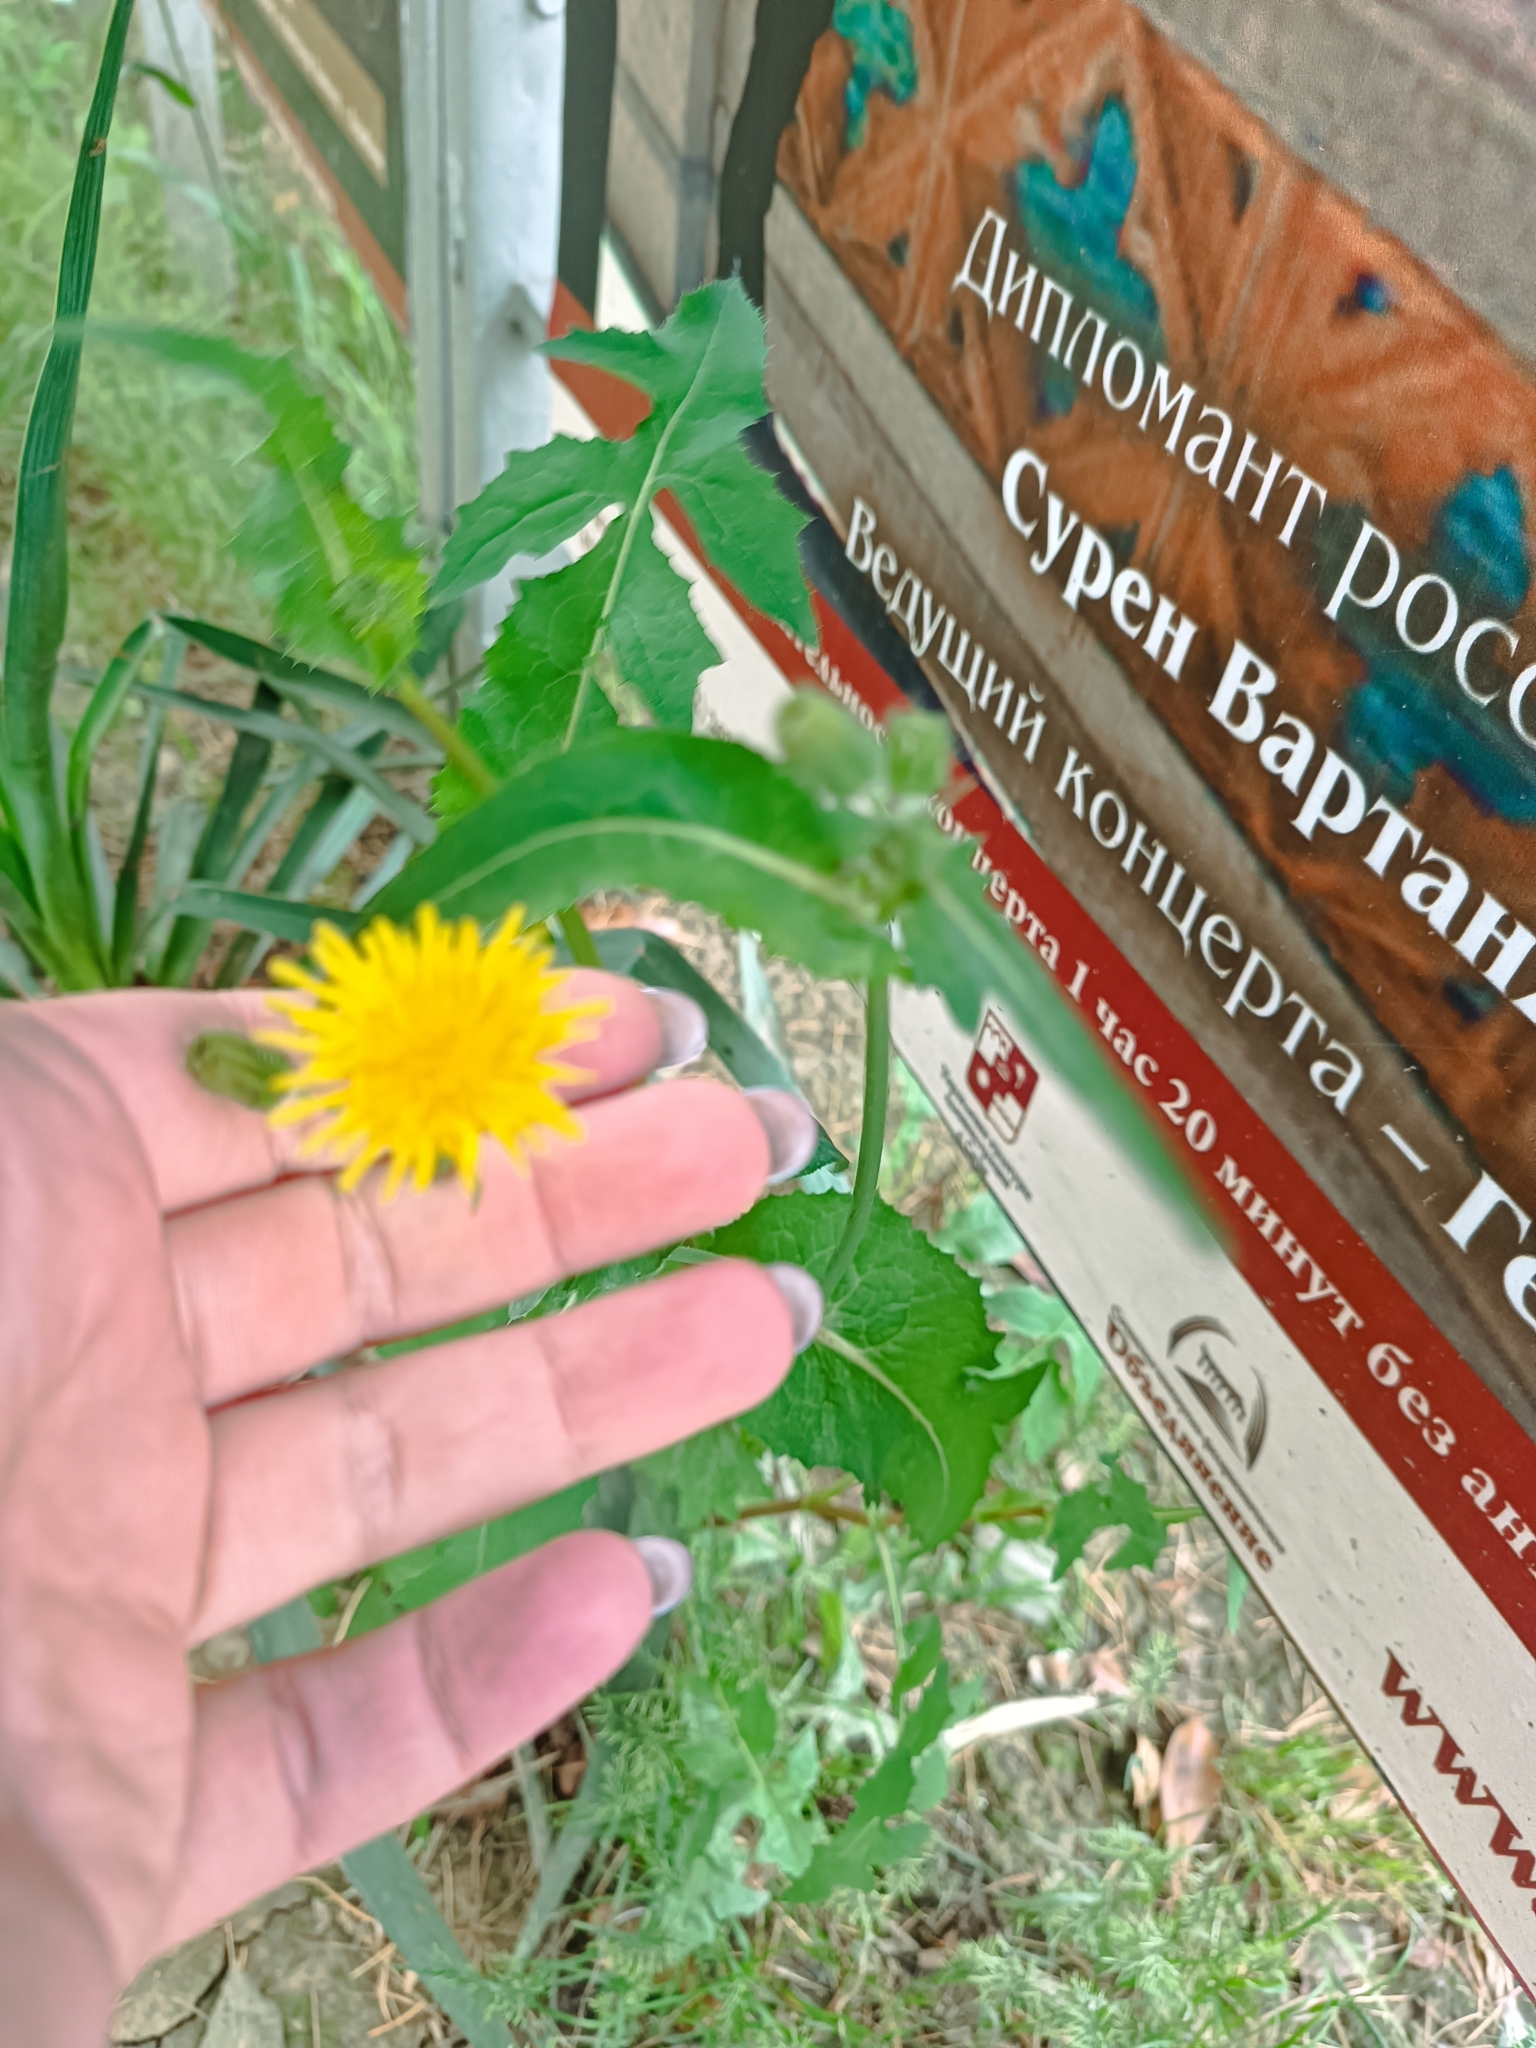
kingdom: Plantae
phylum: Tracheophyta
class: Magnoliopsida
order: Asterales
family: Asteraceae
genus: Sonchus
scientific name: Sonchus oleraceus
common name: Common sowthistle
